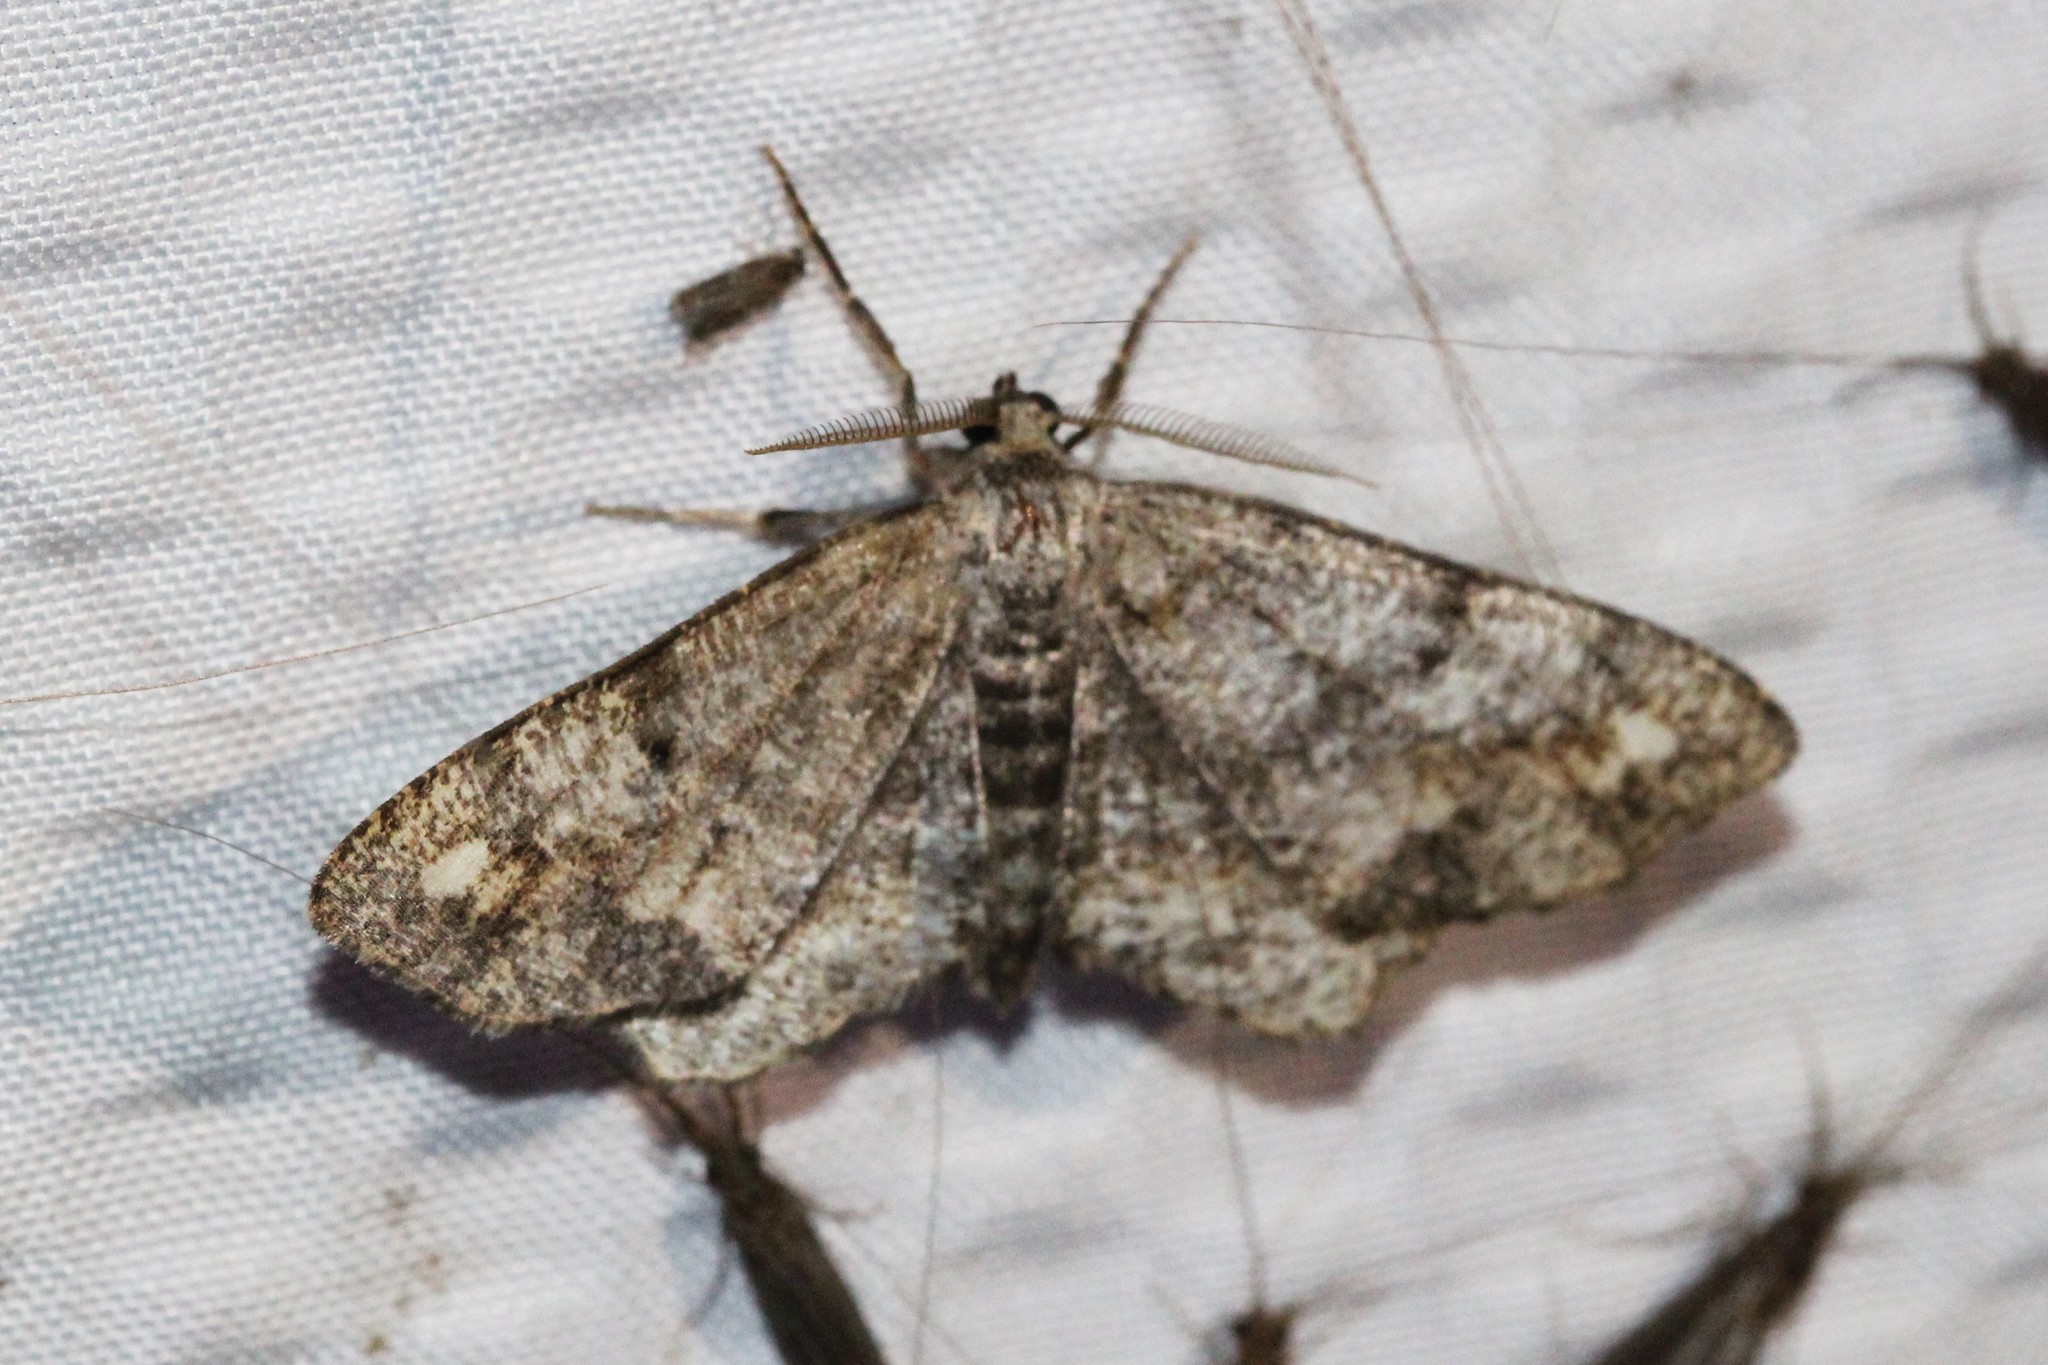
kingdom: Animalia
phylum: Arthropoda
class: Insecta
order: Lepidoptera
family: Geometridae
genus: Hypagyrtis
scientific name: Hypagyrtis unipunctata
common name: One-spotted variant
